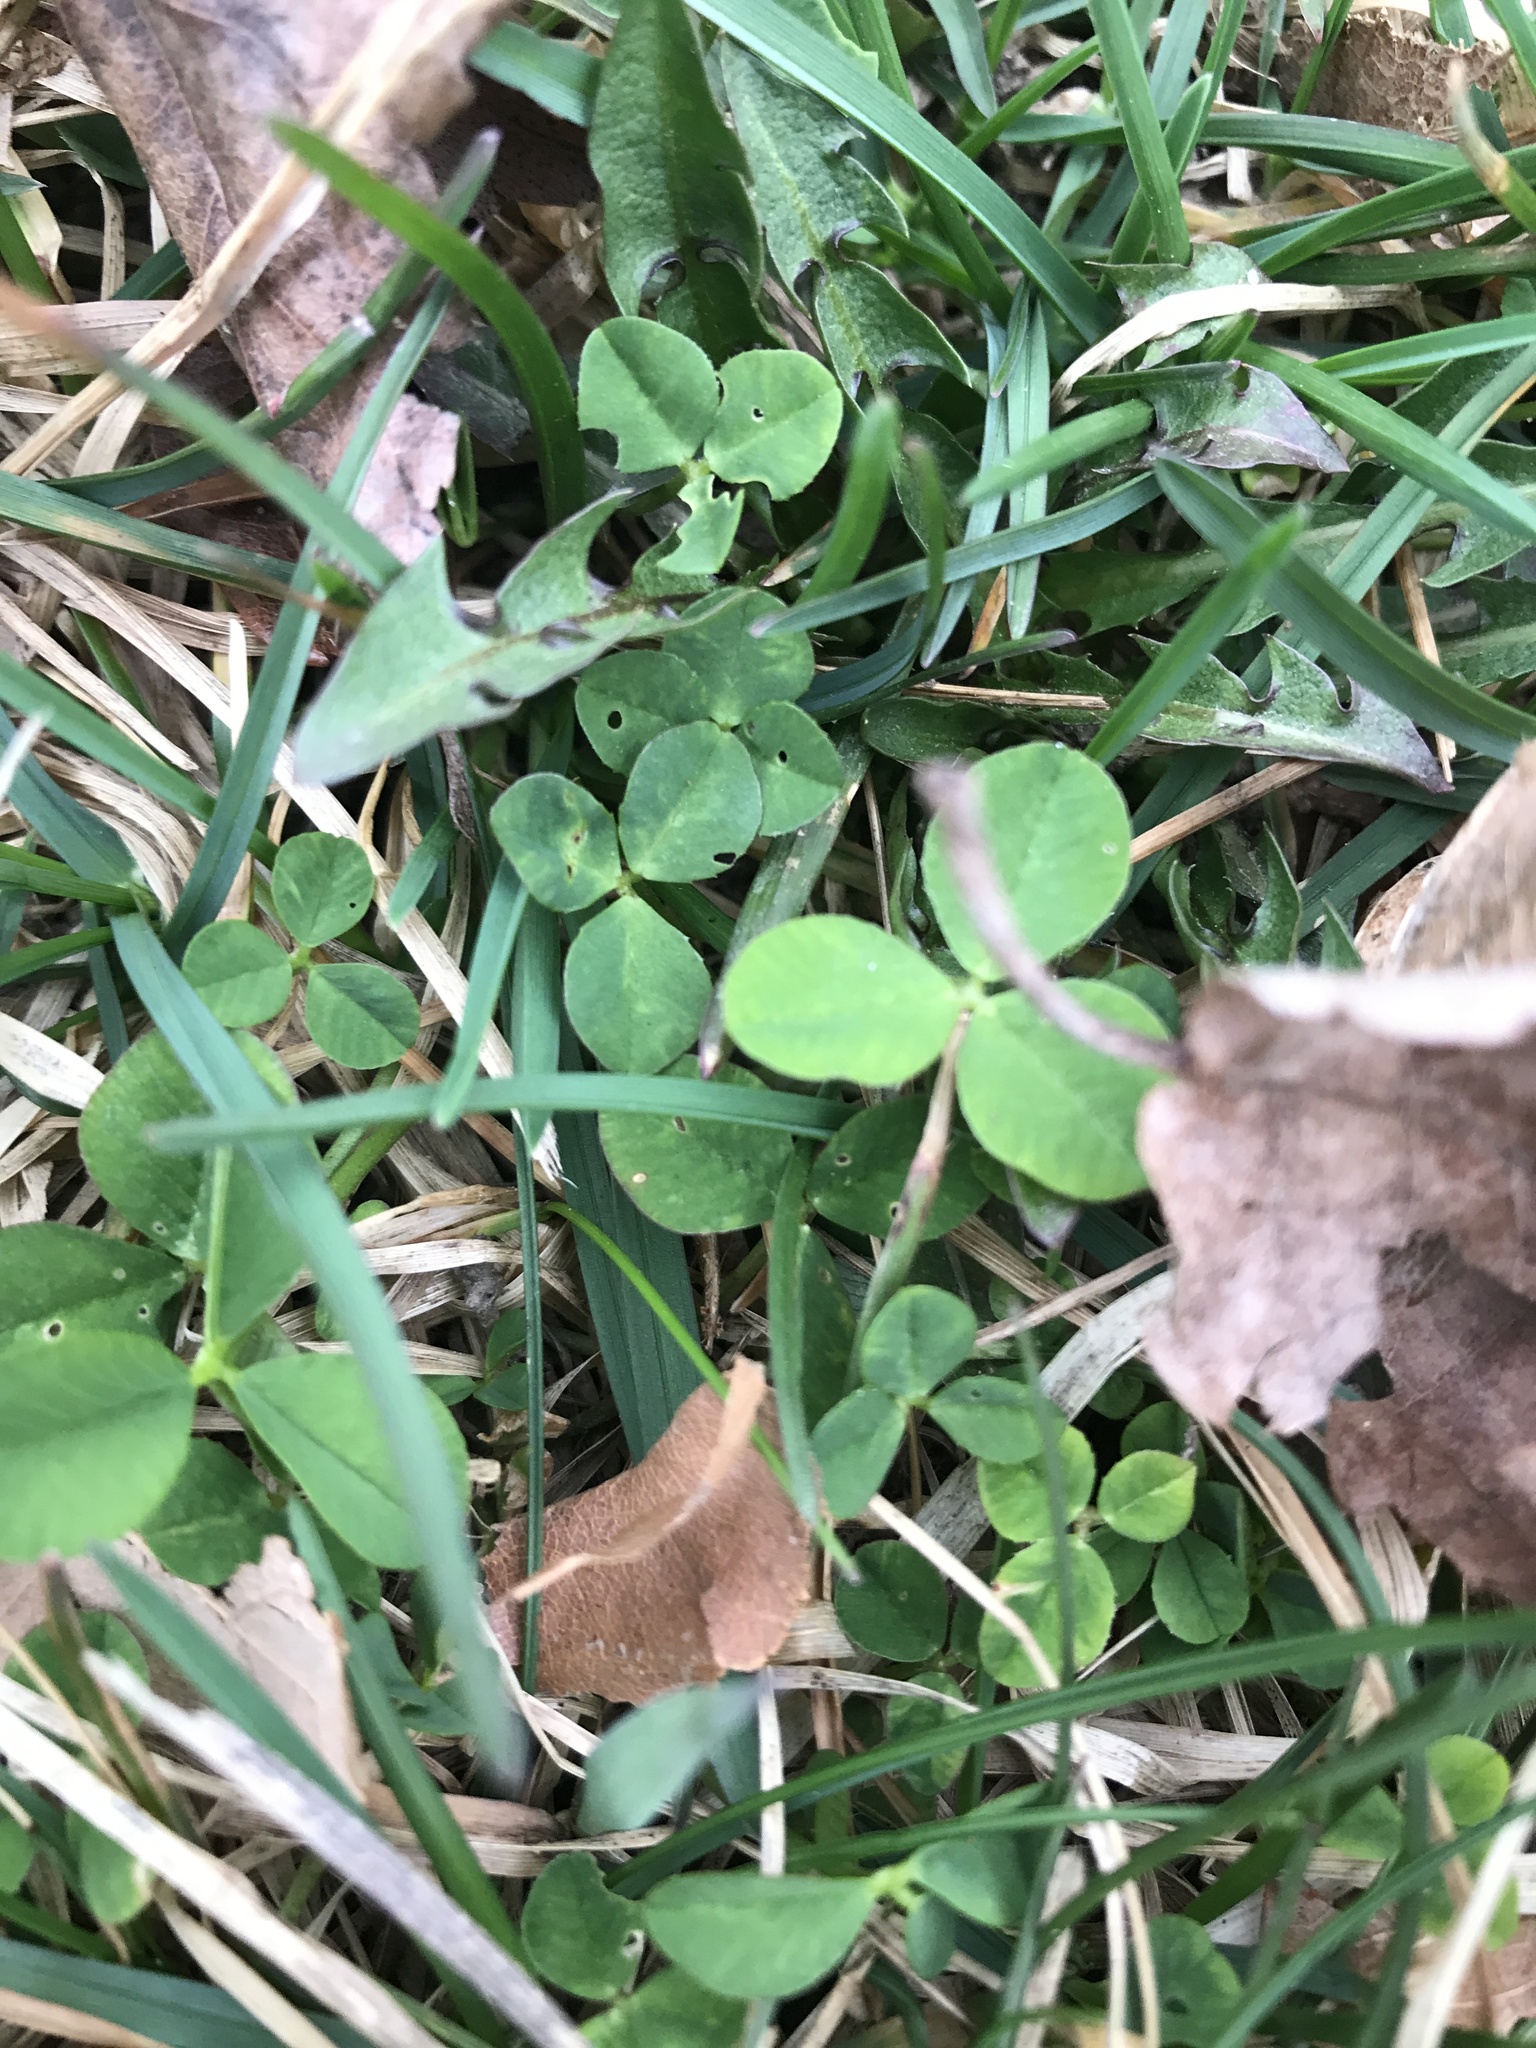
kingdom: Plantae
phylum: Tracheophyta
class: Magnoliopsida
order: Fabales
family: Fabaceae
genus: Trifolium
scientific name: Trifolium repens
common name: White clover
